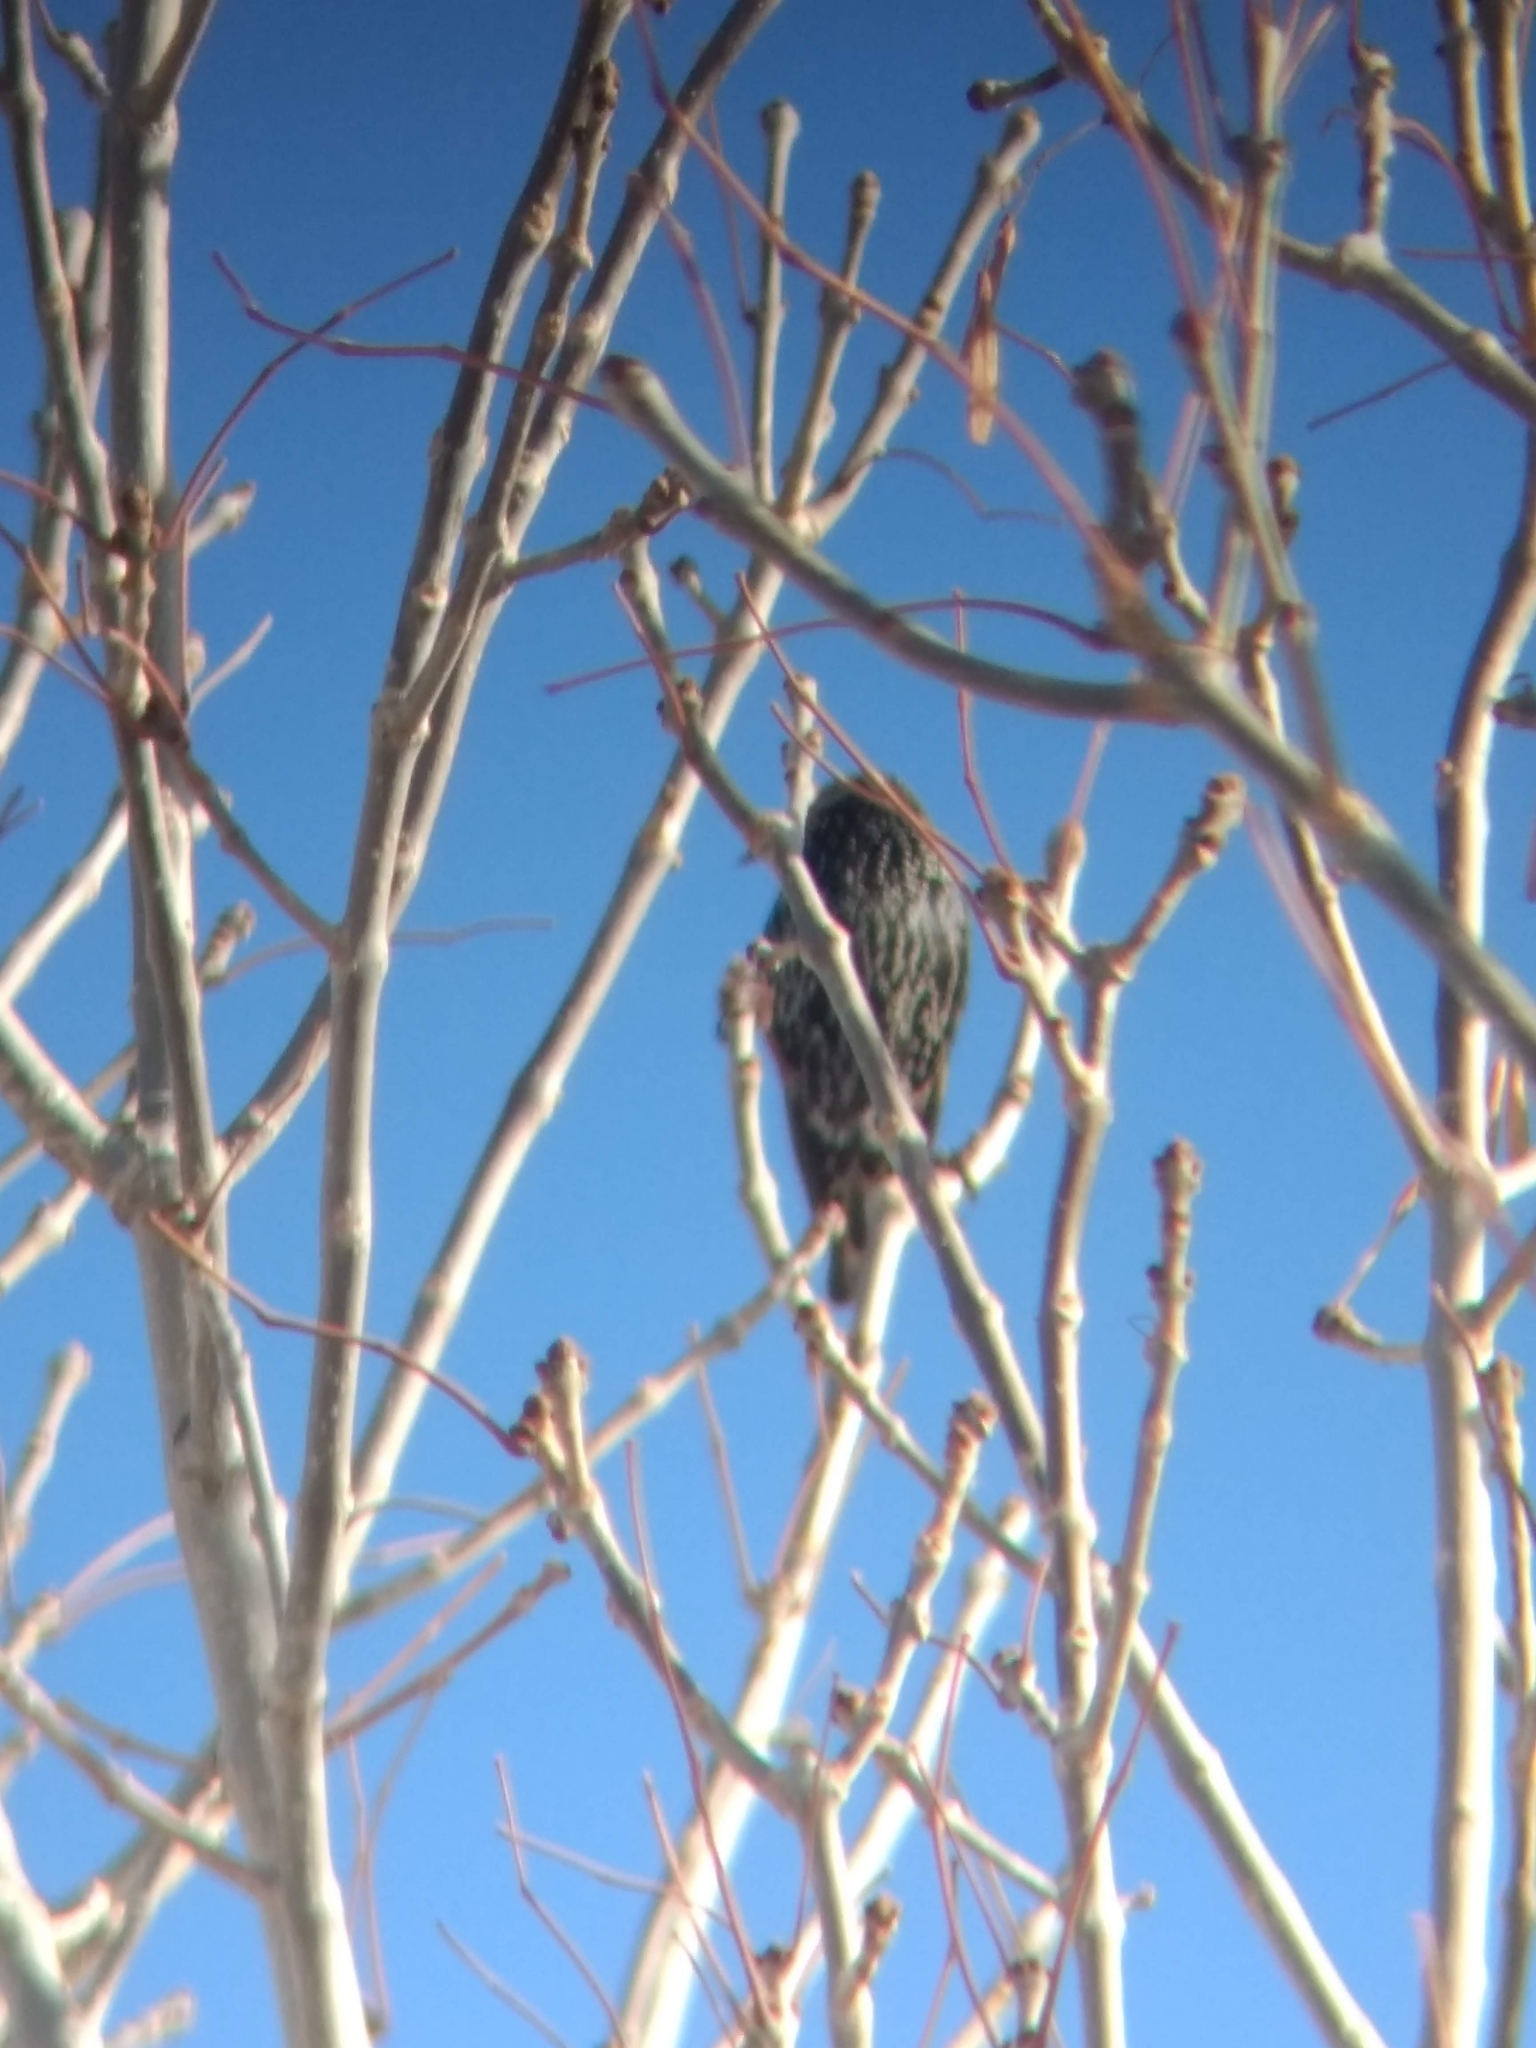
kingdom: Animalia
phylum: Chordata
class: Aves
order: Passeriformes
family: Sturnidae
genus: Sturnus
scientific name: Sturnus vulgaris
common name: Common starling
